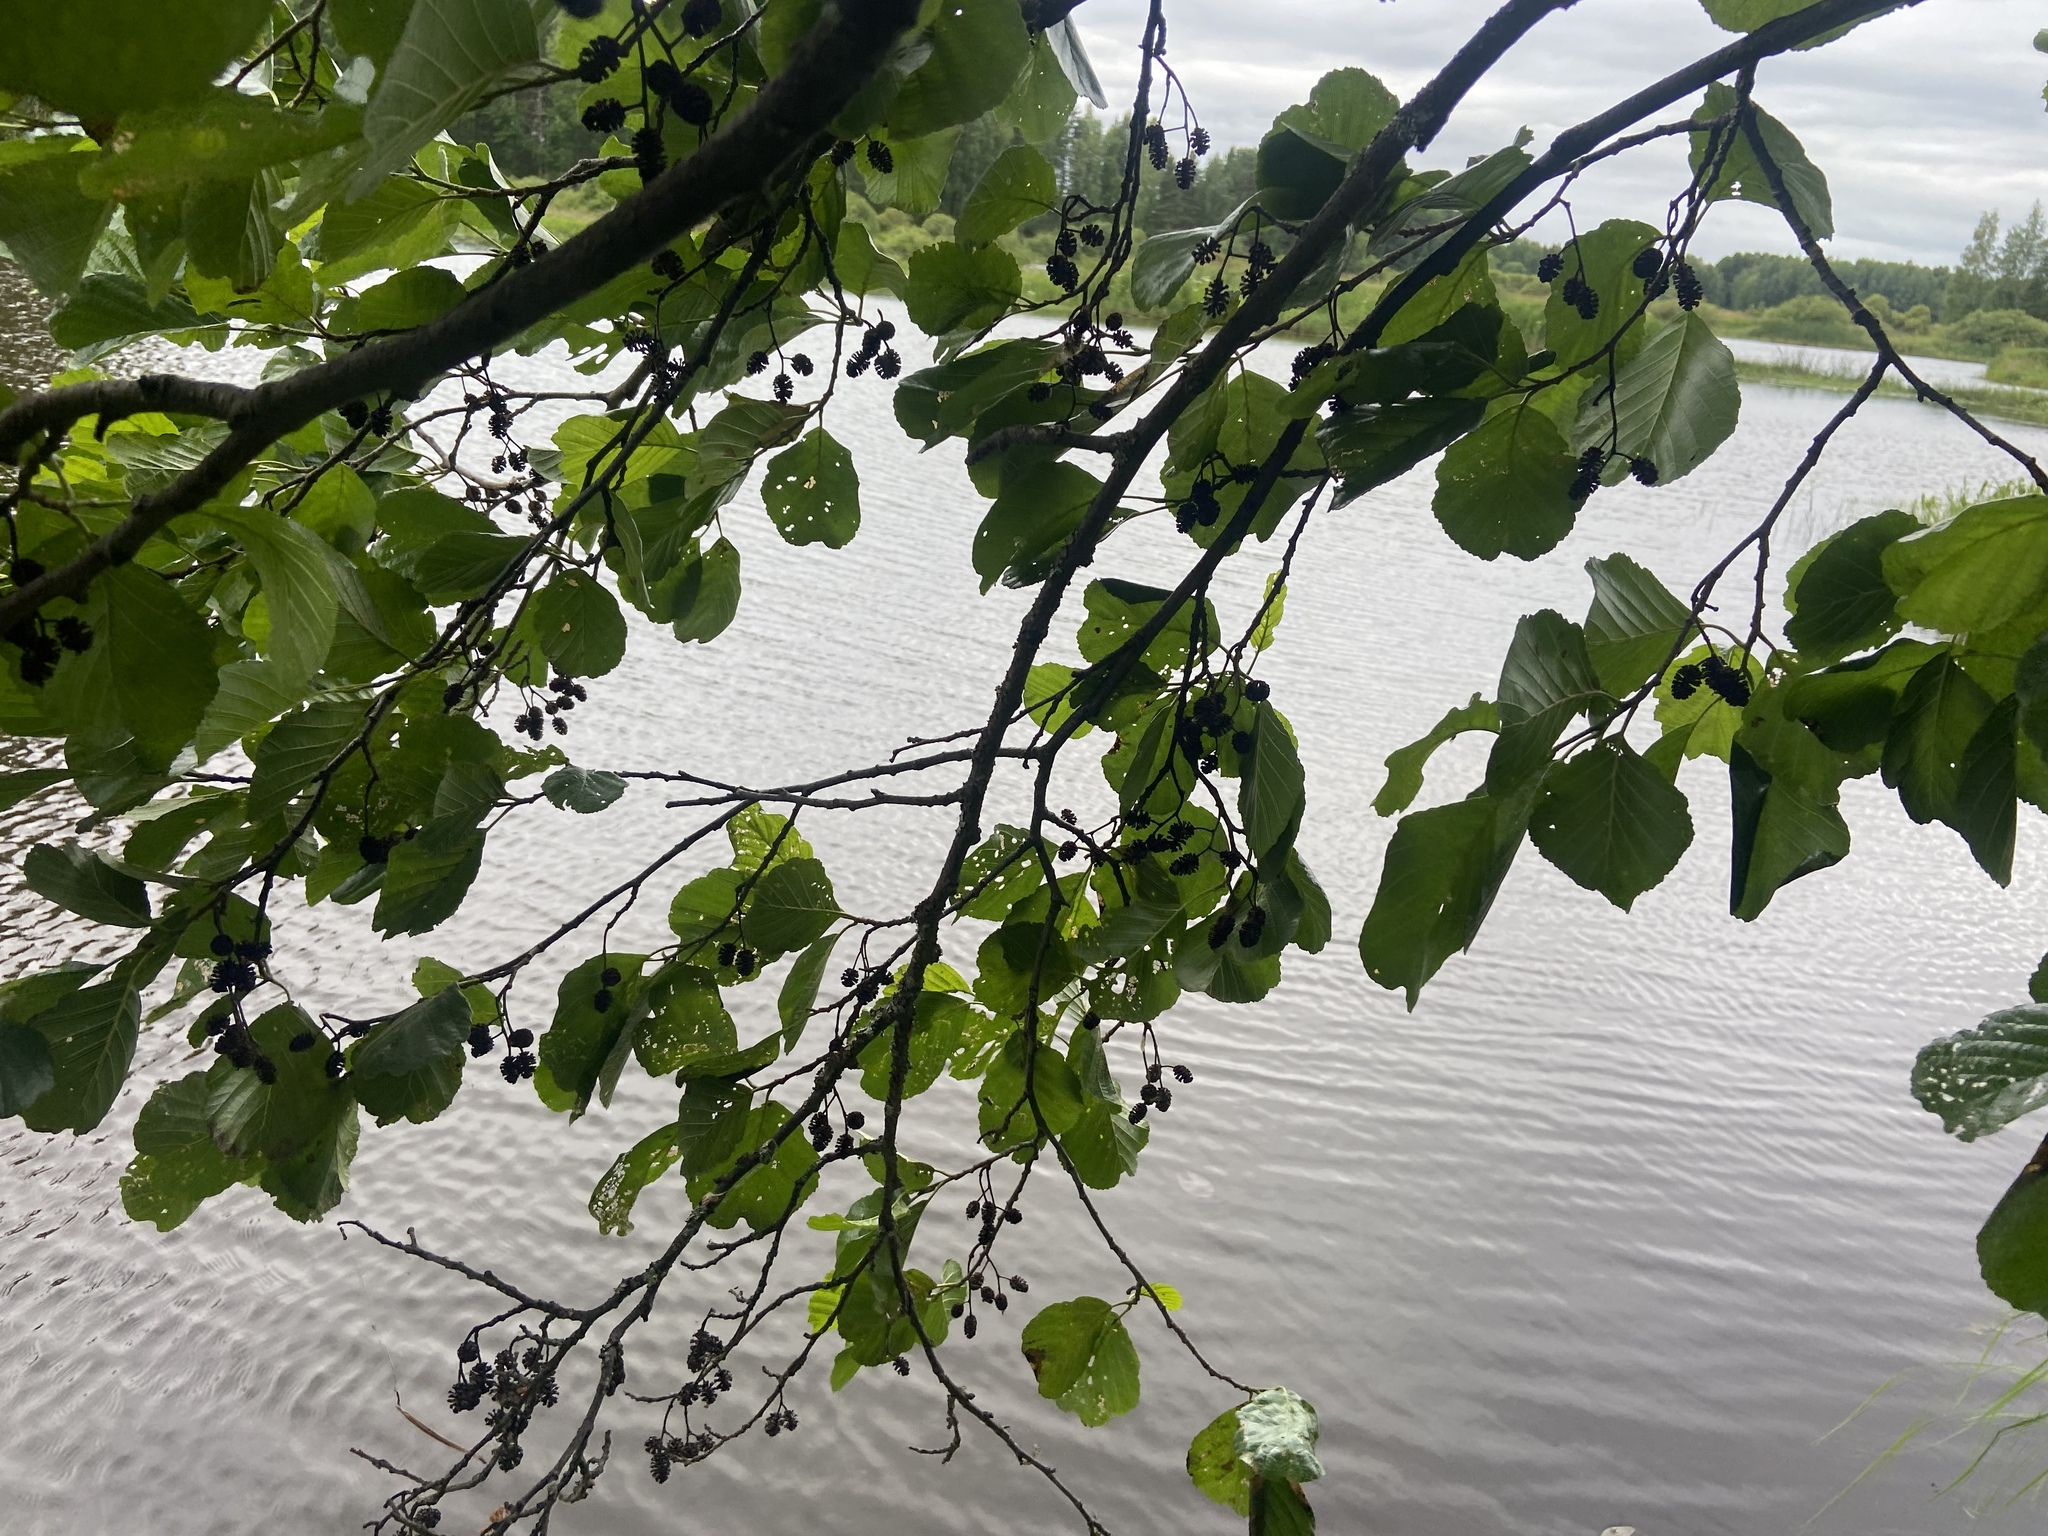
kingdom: Plantae
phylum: Tracheophyta
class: Magnoliopsida
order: Fagales
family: Betulaceae
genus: Alnus
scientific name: Alnus glutinosa
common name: Black alder
